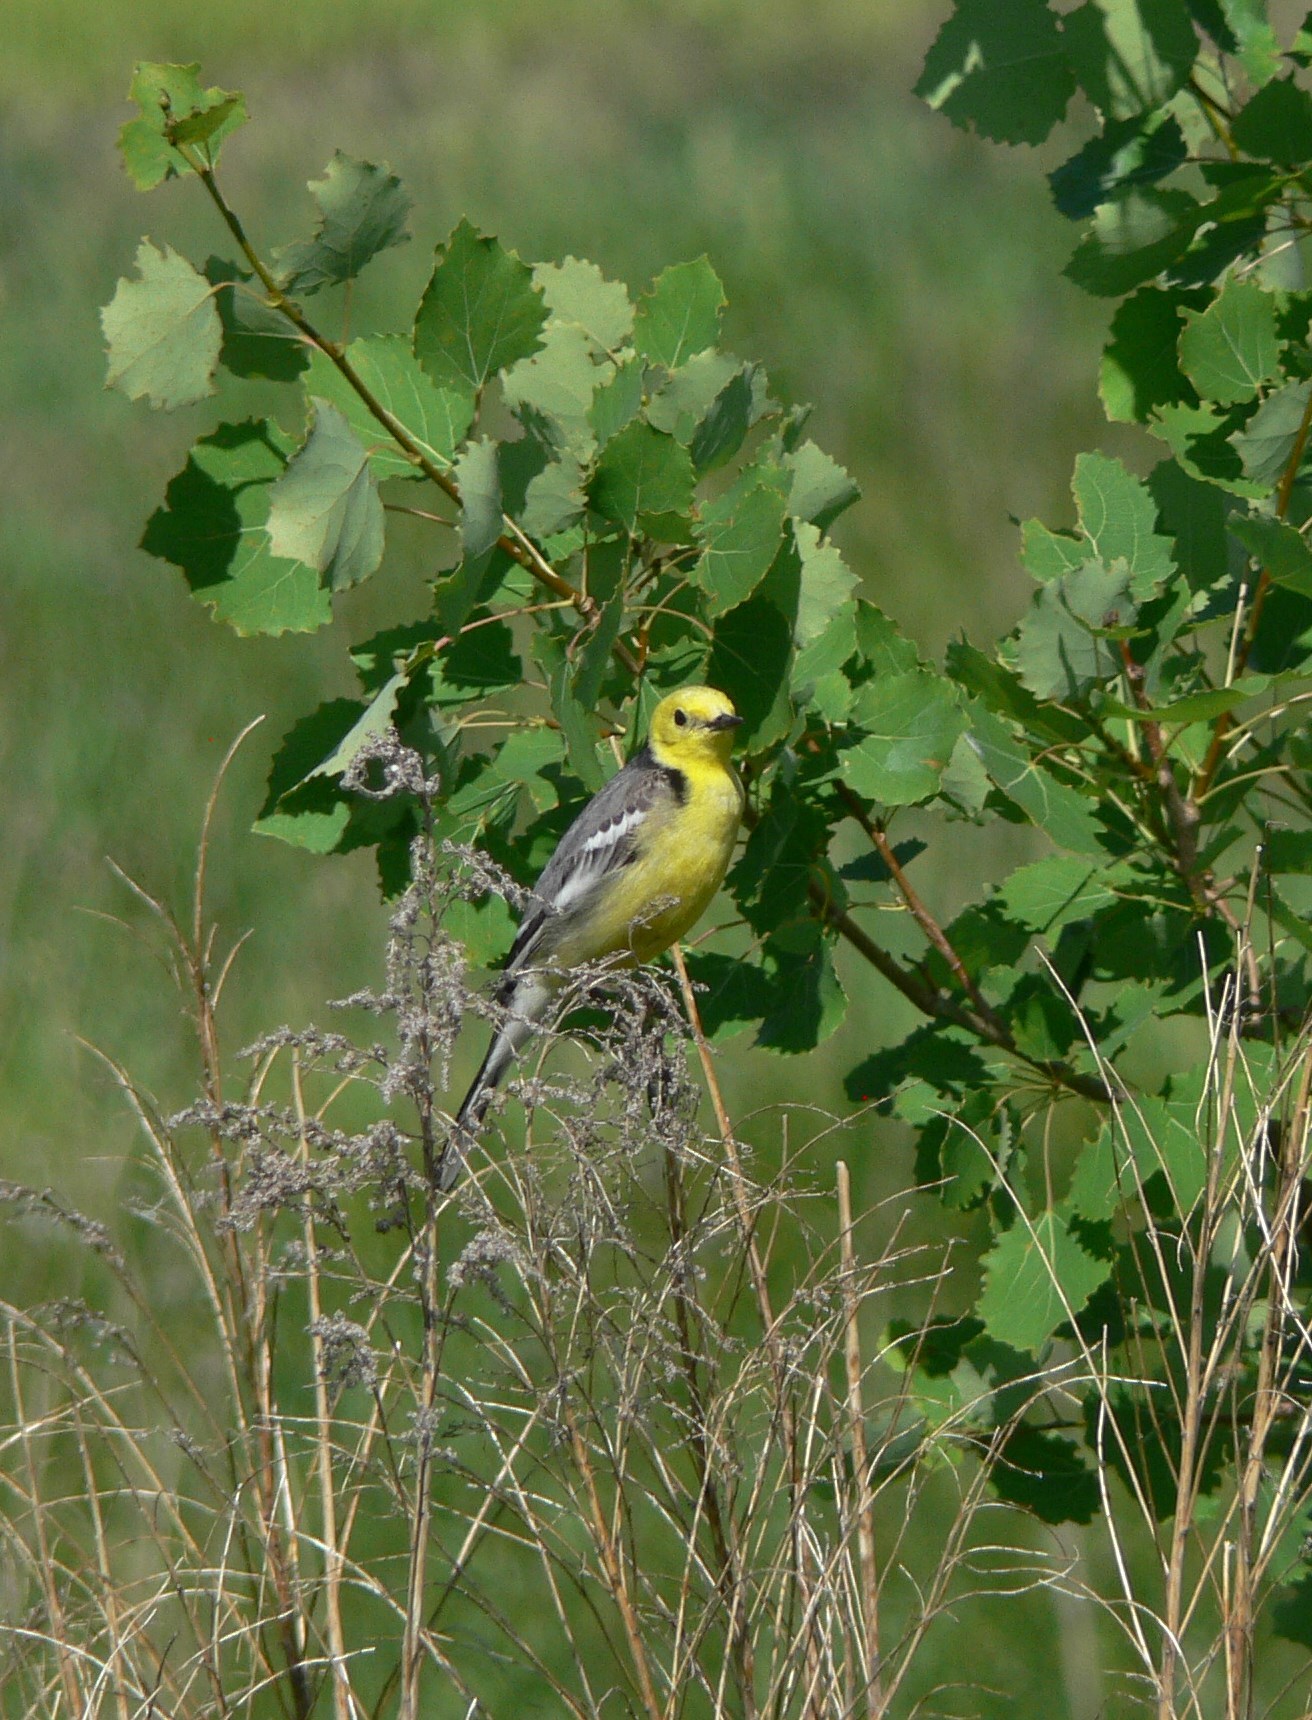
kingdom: Animalia
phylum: Chordata
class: Aves
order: Passeriformes
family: Motacillidae
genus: Motacilla
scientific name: Motacilla citreola
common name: Citrine wagtail
